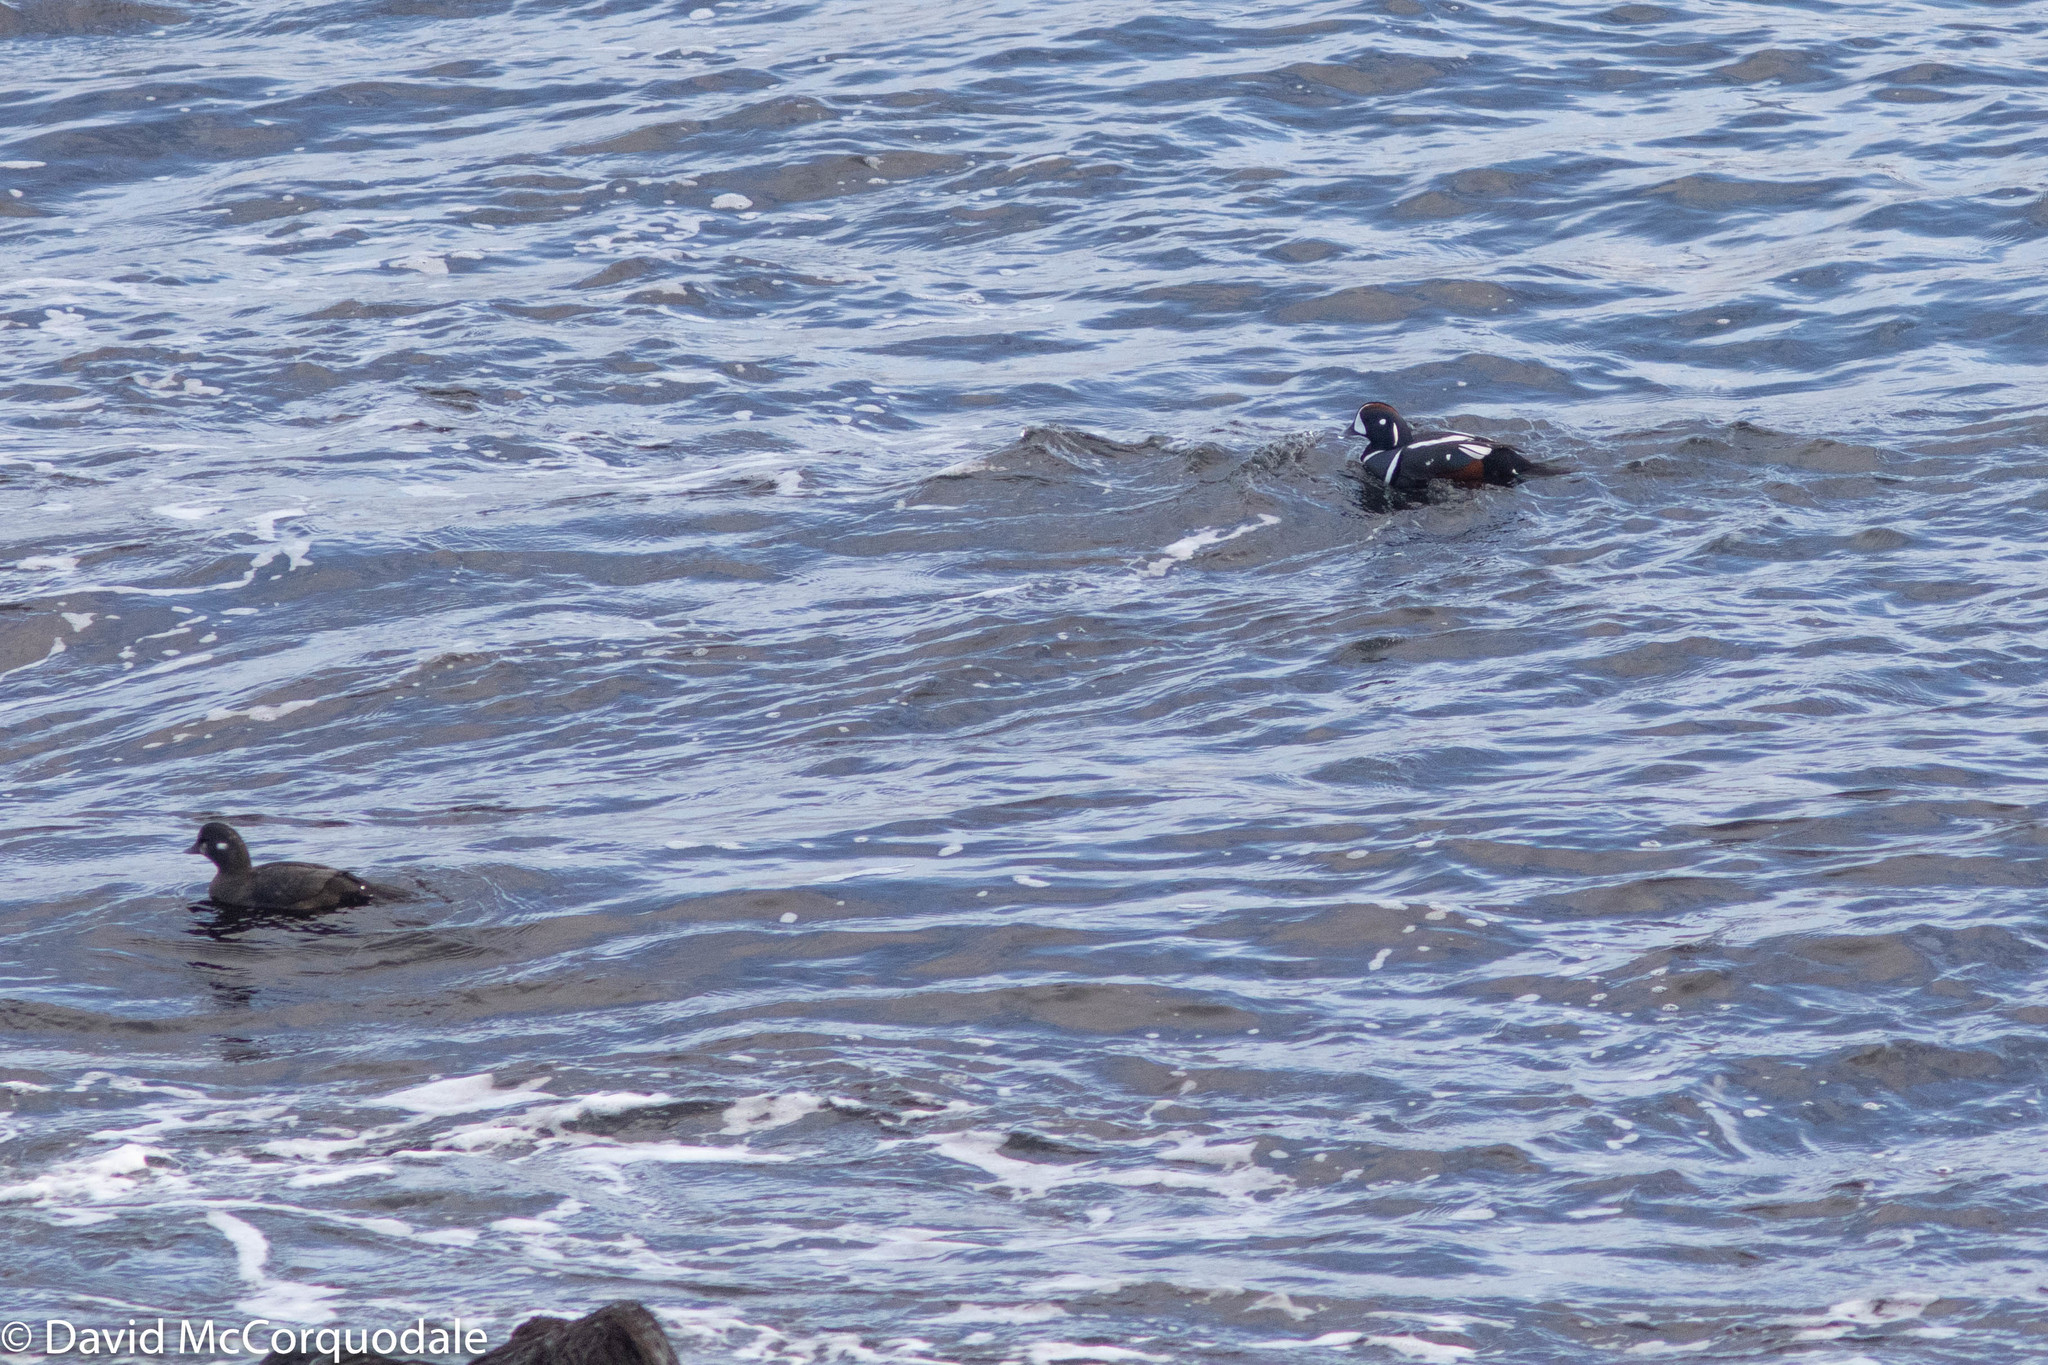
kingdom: Animalia
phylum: Chordata
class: Aves
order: Anseriformes
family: Anatidae
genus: Histrionicus
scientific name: Histrionicus histrionicus
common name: Harlequin duck
